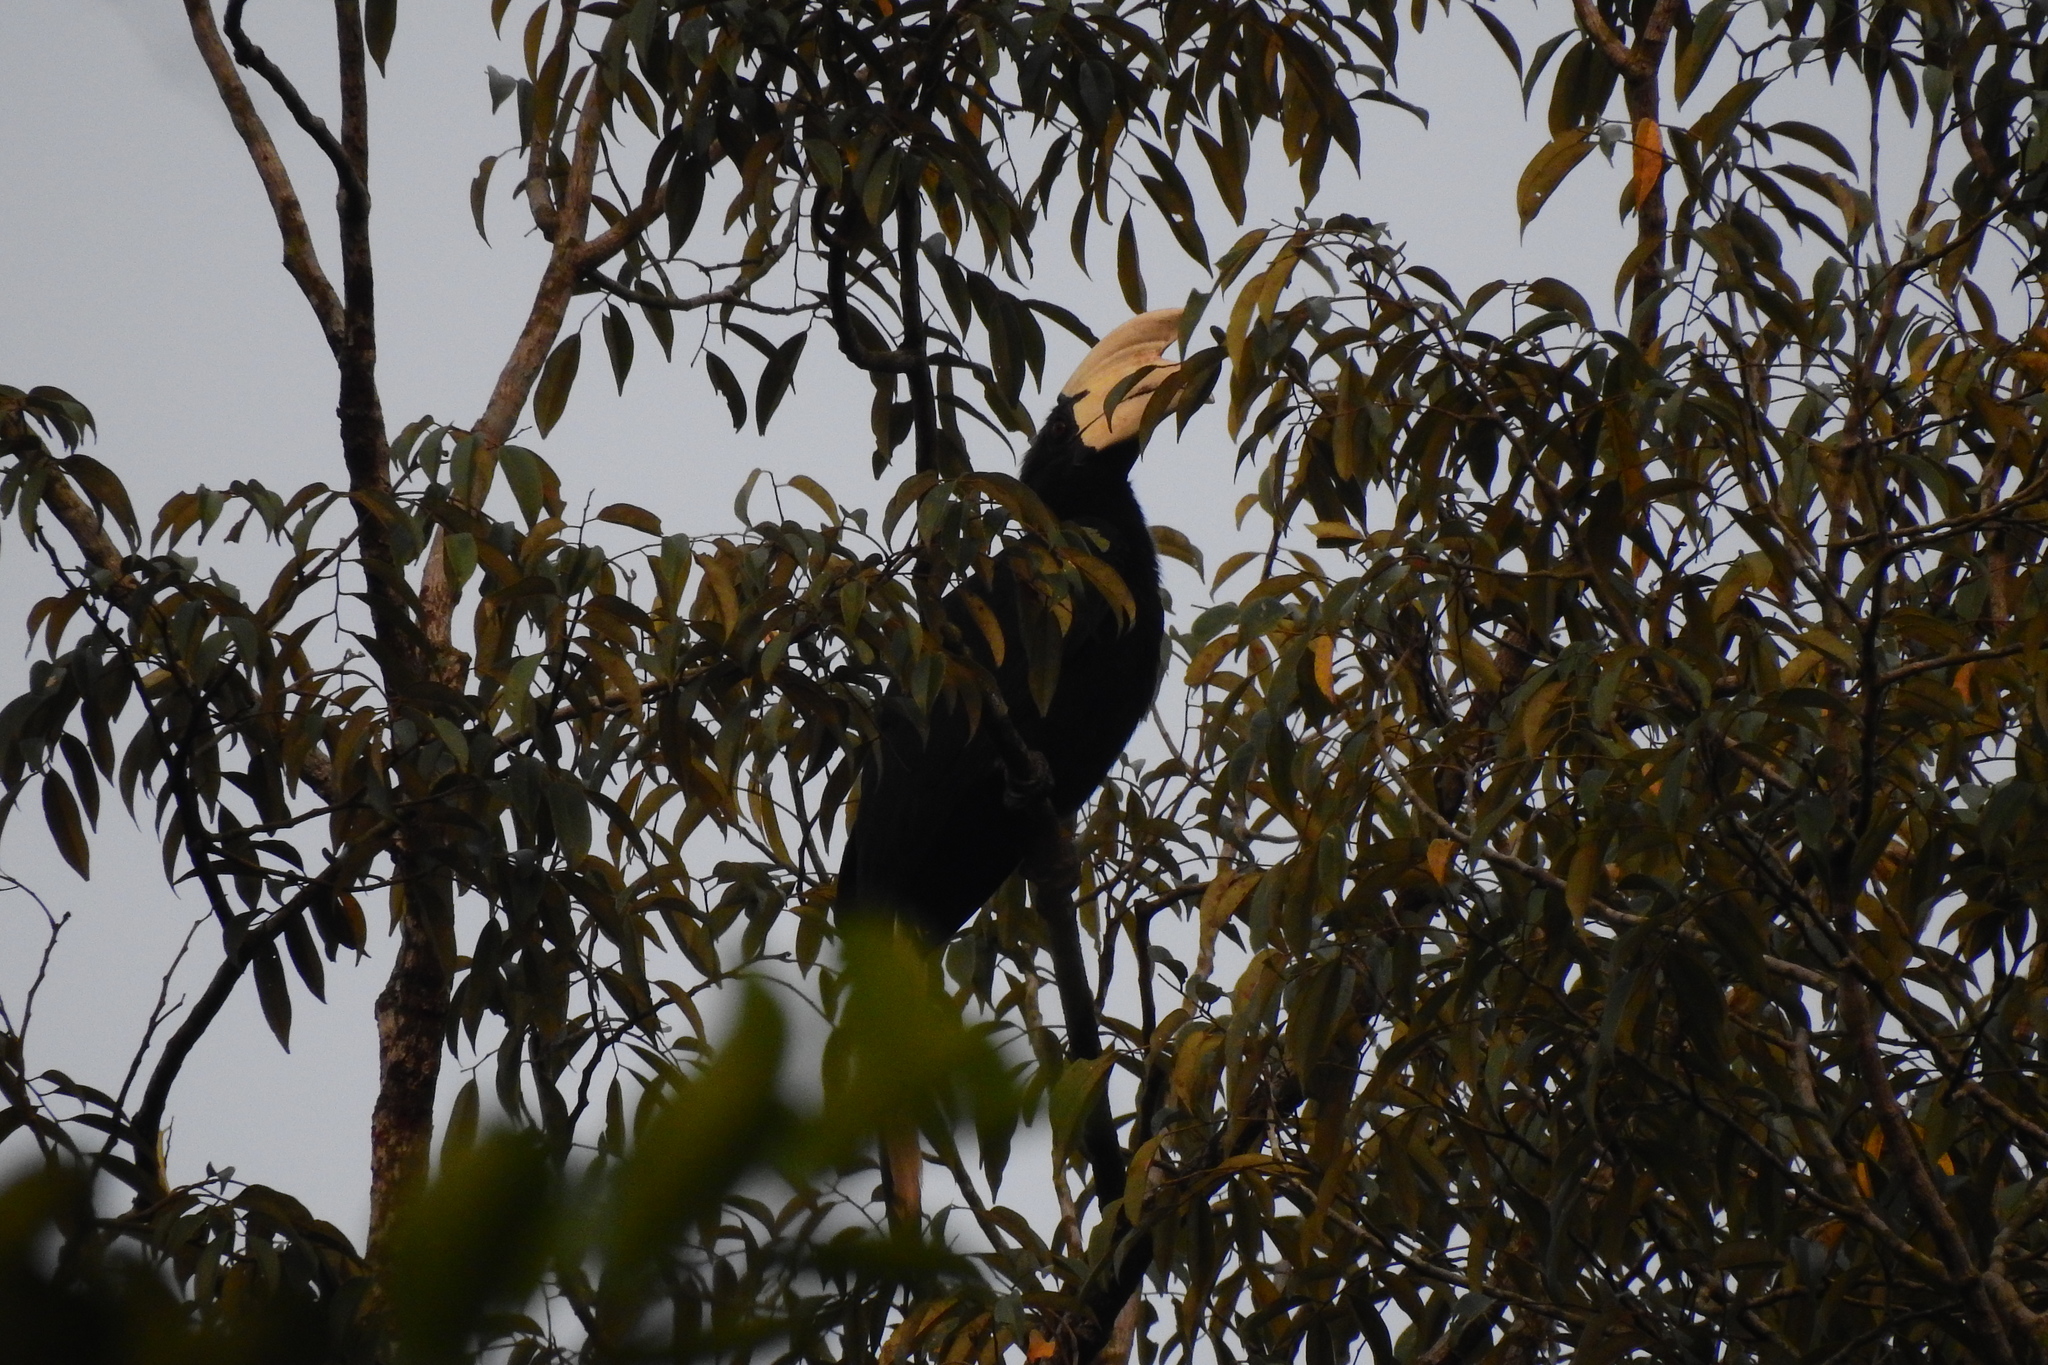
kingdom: Animalia
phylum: Chordata
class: Aves
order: Bucerotiformes
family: Bucerotidae
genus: Anthracoceros
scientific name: Anthracoceros malayanus
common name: Black hornbill
